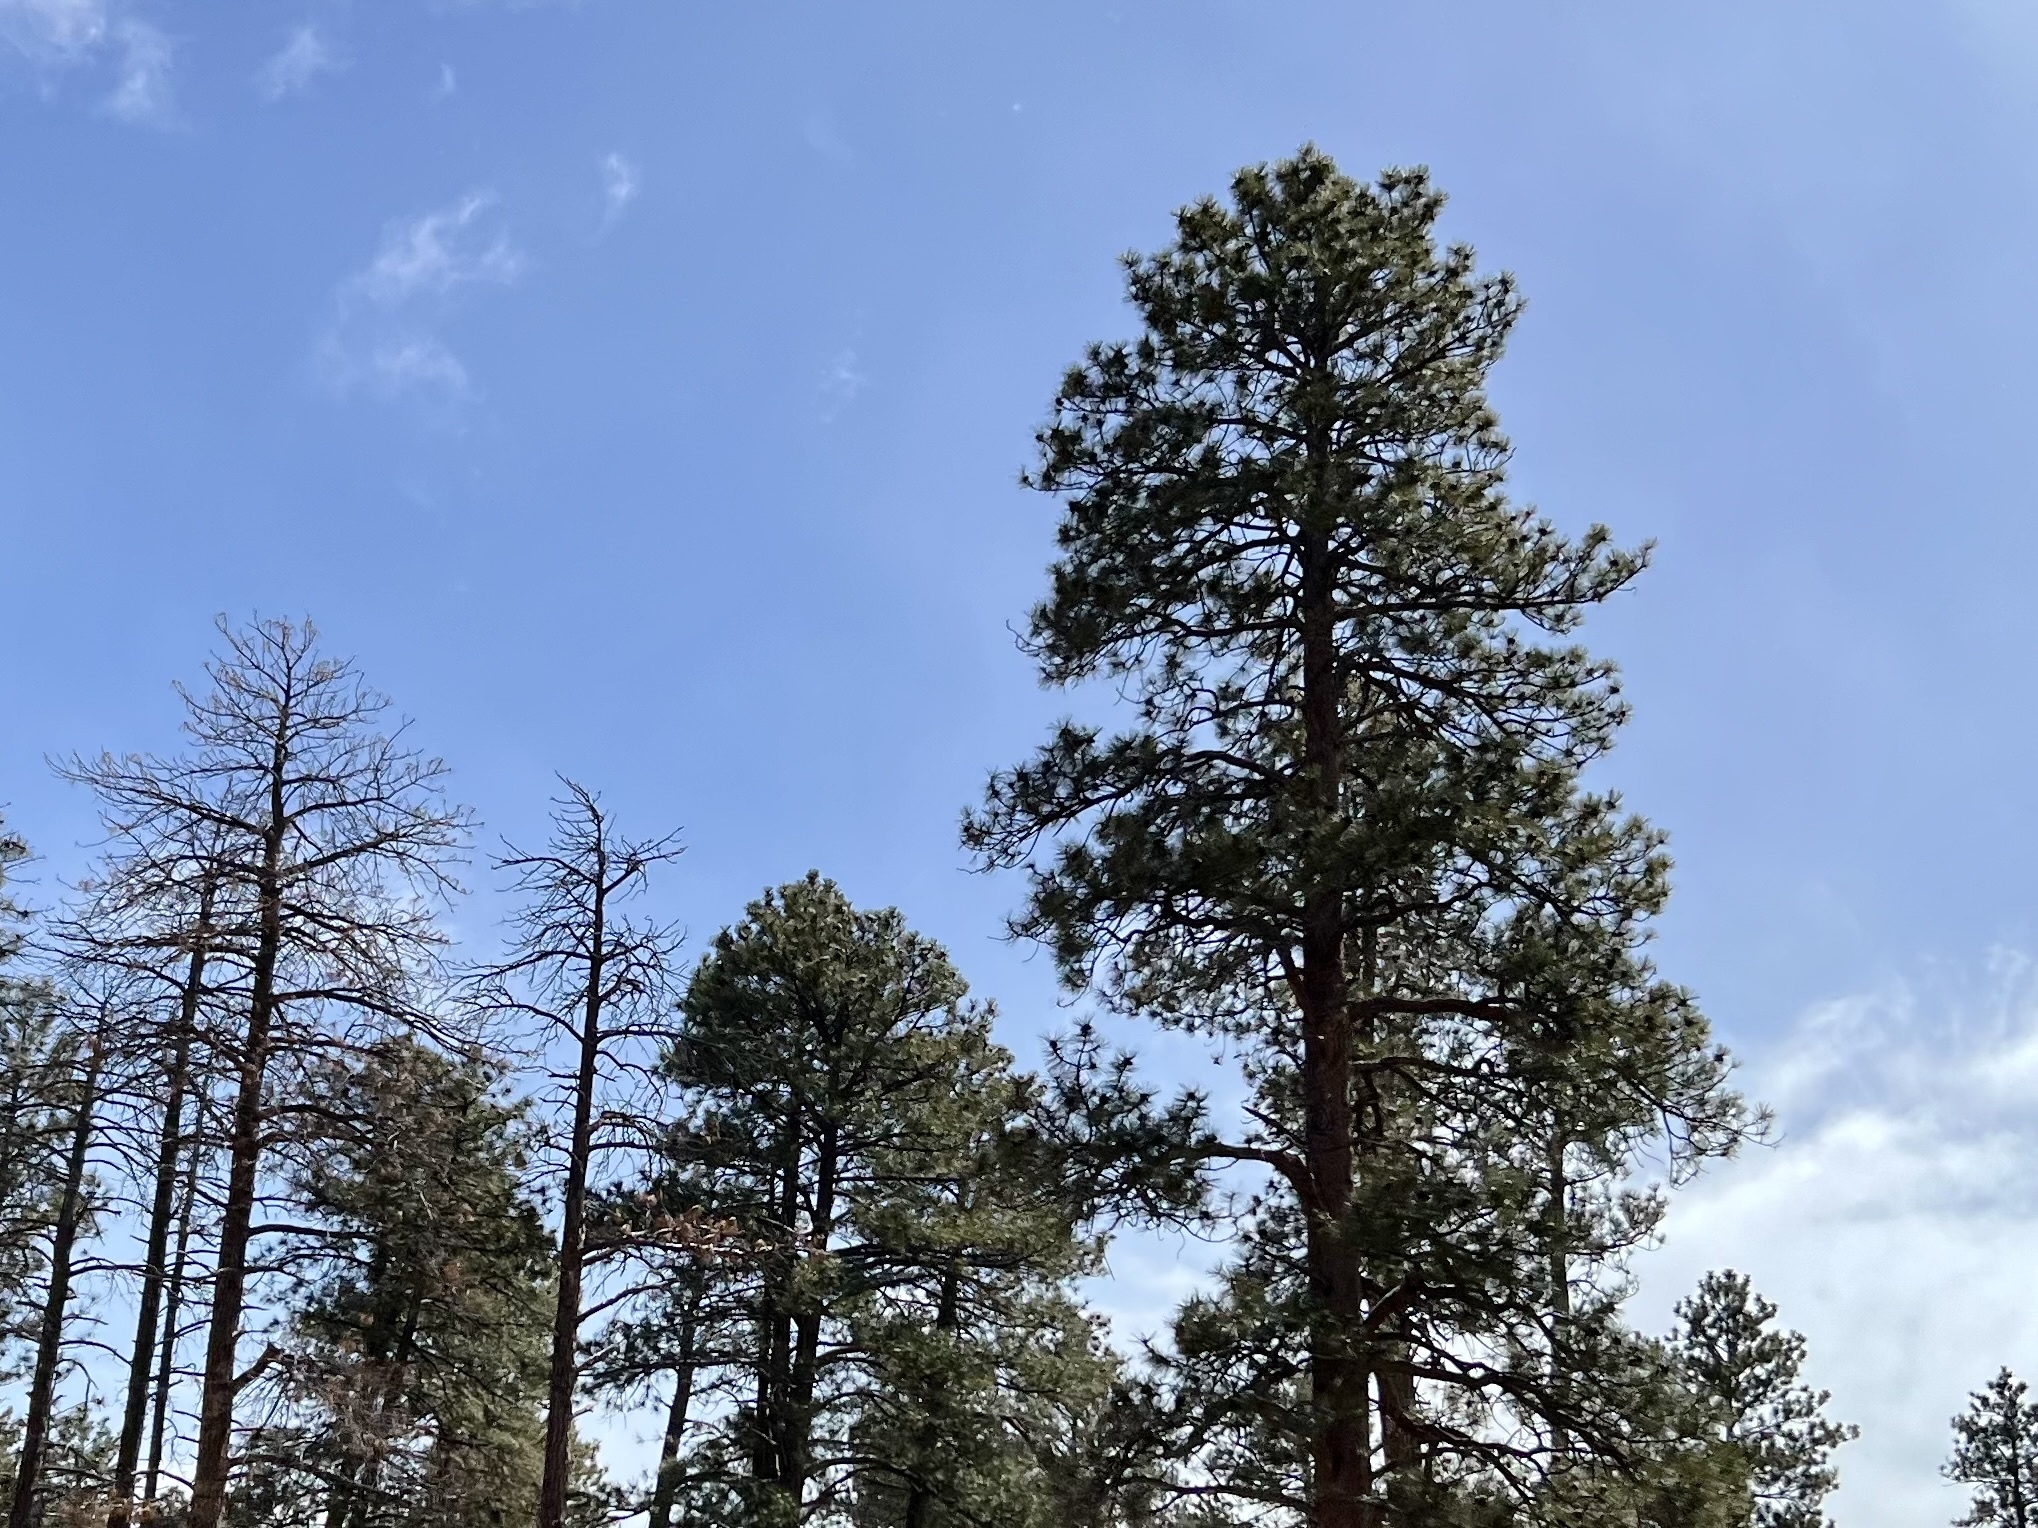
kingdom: Plantae
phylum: Tracheophyta
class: Pinopsida
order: Pinales
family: Pinaceae
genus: Pinus
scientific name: Pinus ponderosa
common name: Western yellow-pine
